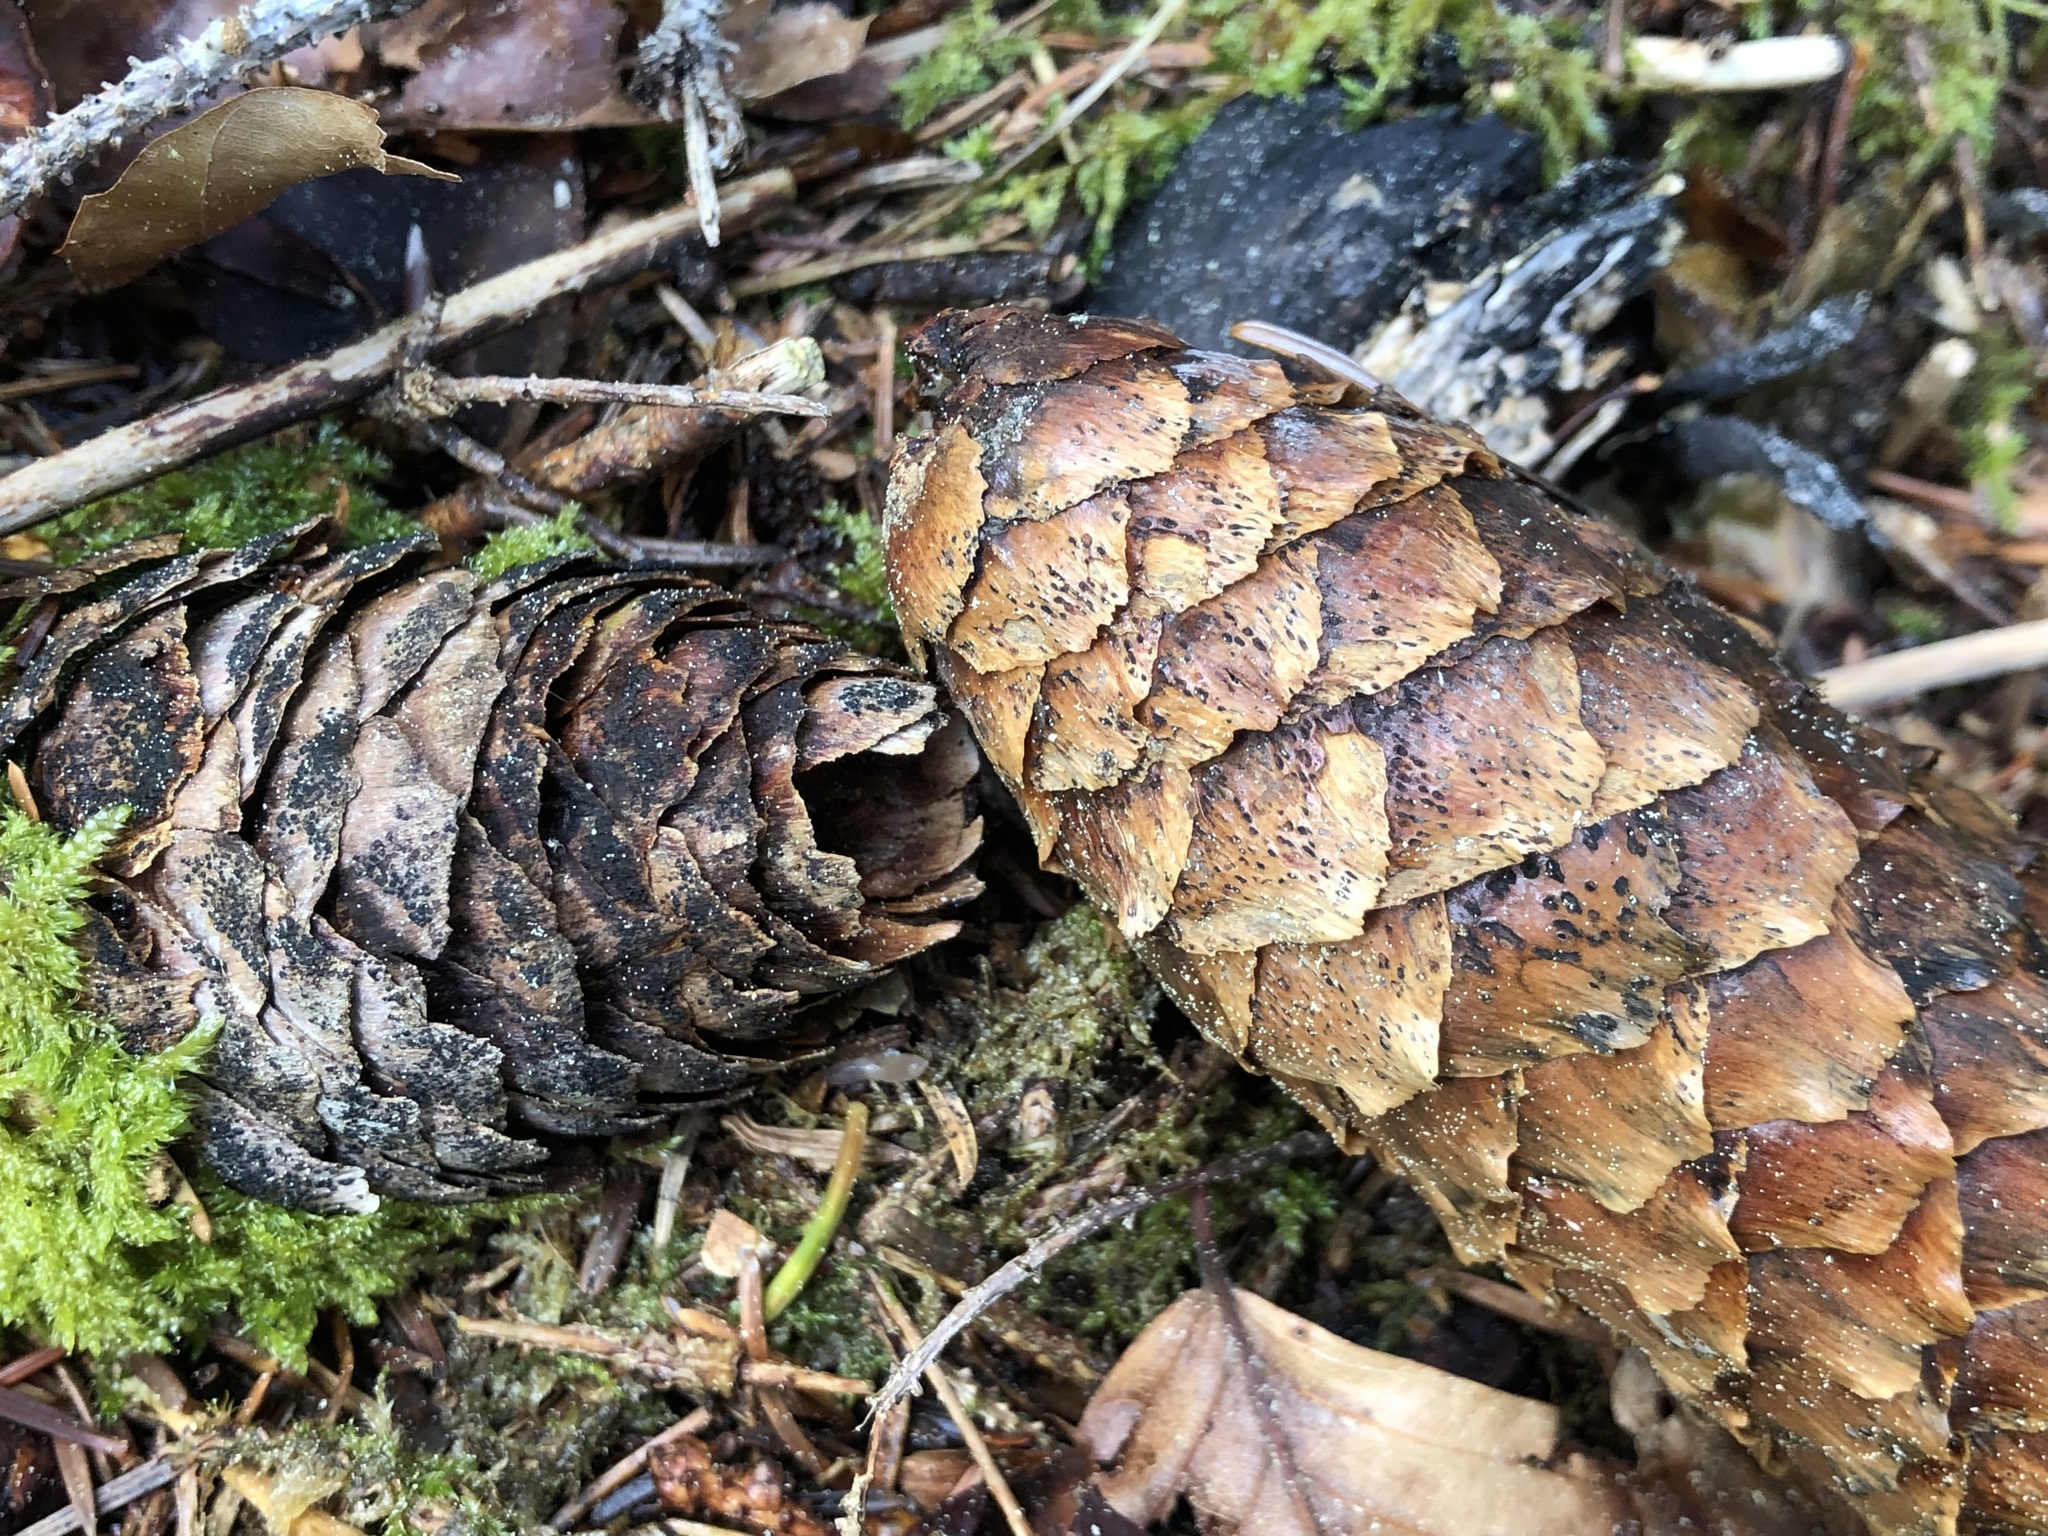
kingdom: Fungi
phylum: Ascomycota
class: Dothideomycetes
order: Pleosporales
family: Melanommataceae
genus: Phragmotrichum
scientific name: Phragmotrichum chailletii
